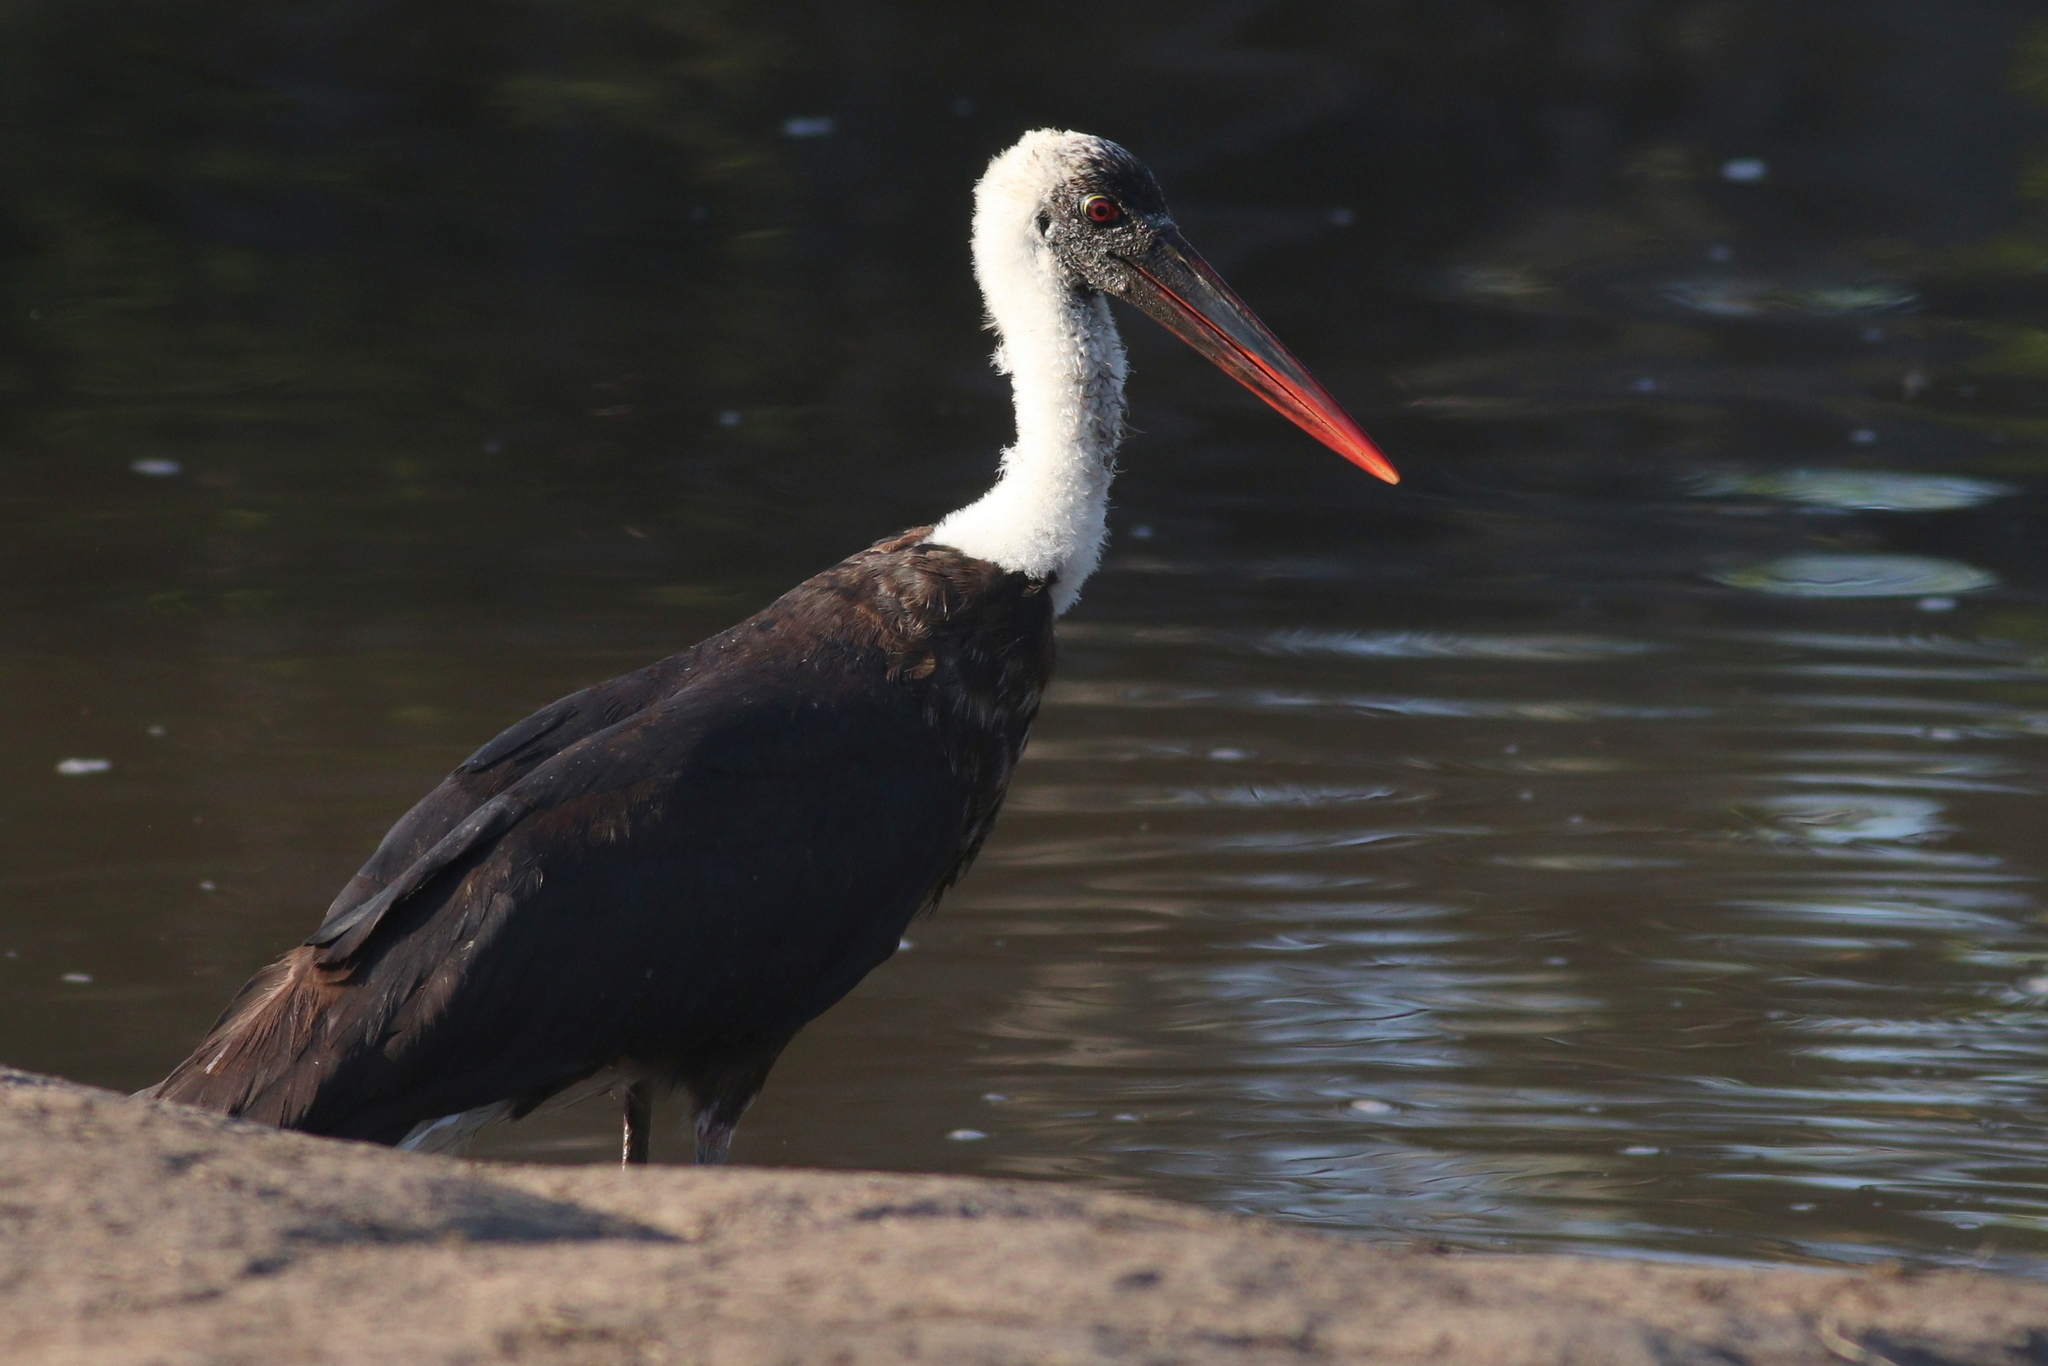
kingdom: Animalia
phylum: Chordata
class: Aves
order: Ciconiiformes
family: Ciconiidae
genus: Ciconia
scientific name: Ciconia microscelis
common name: African woollyneck
